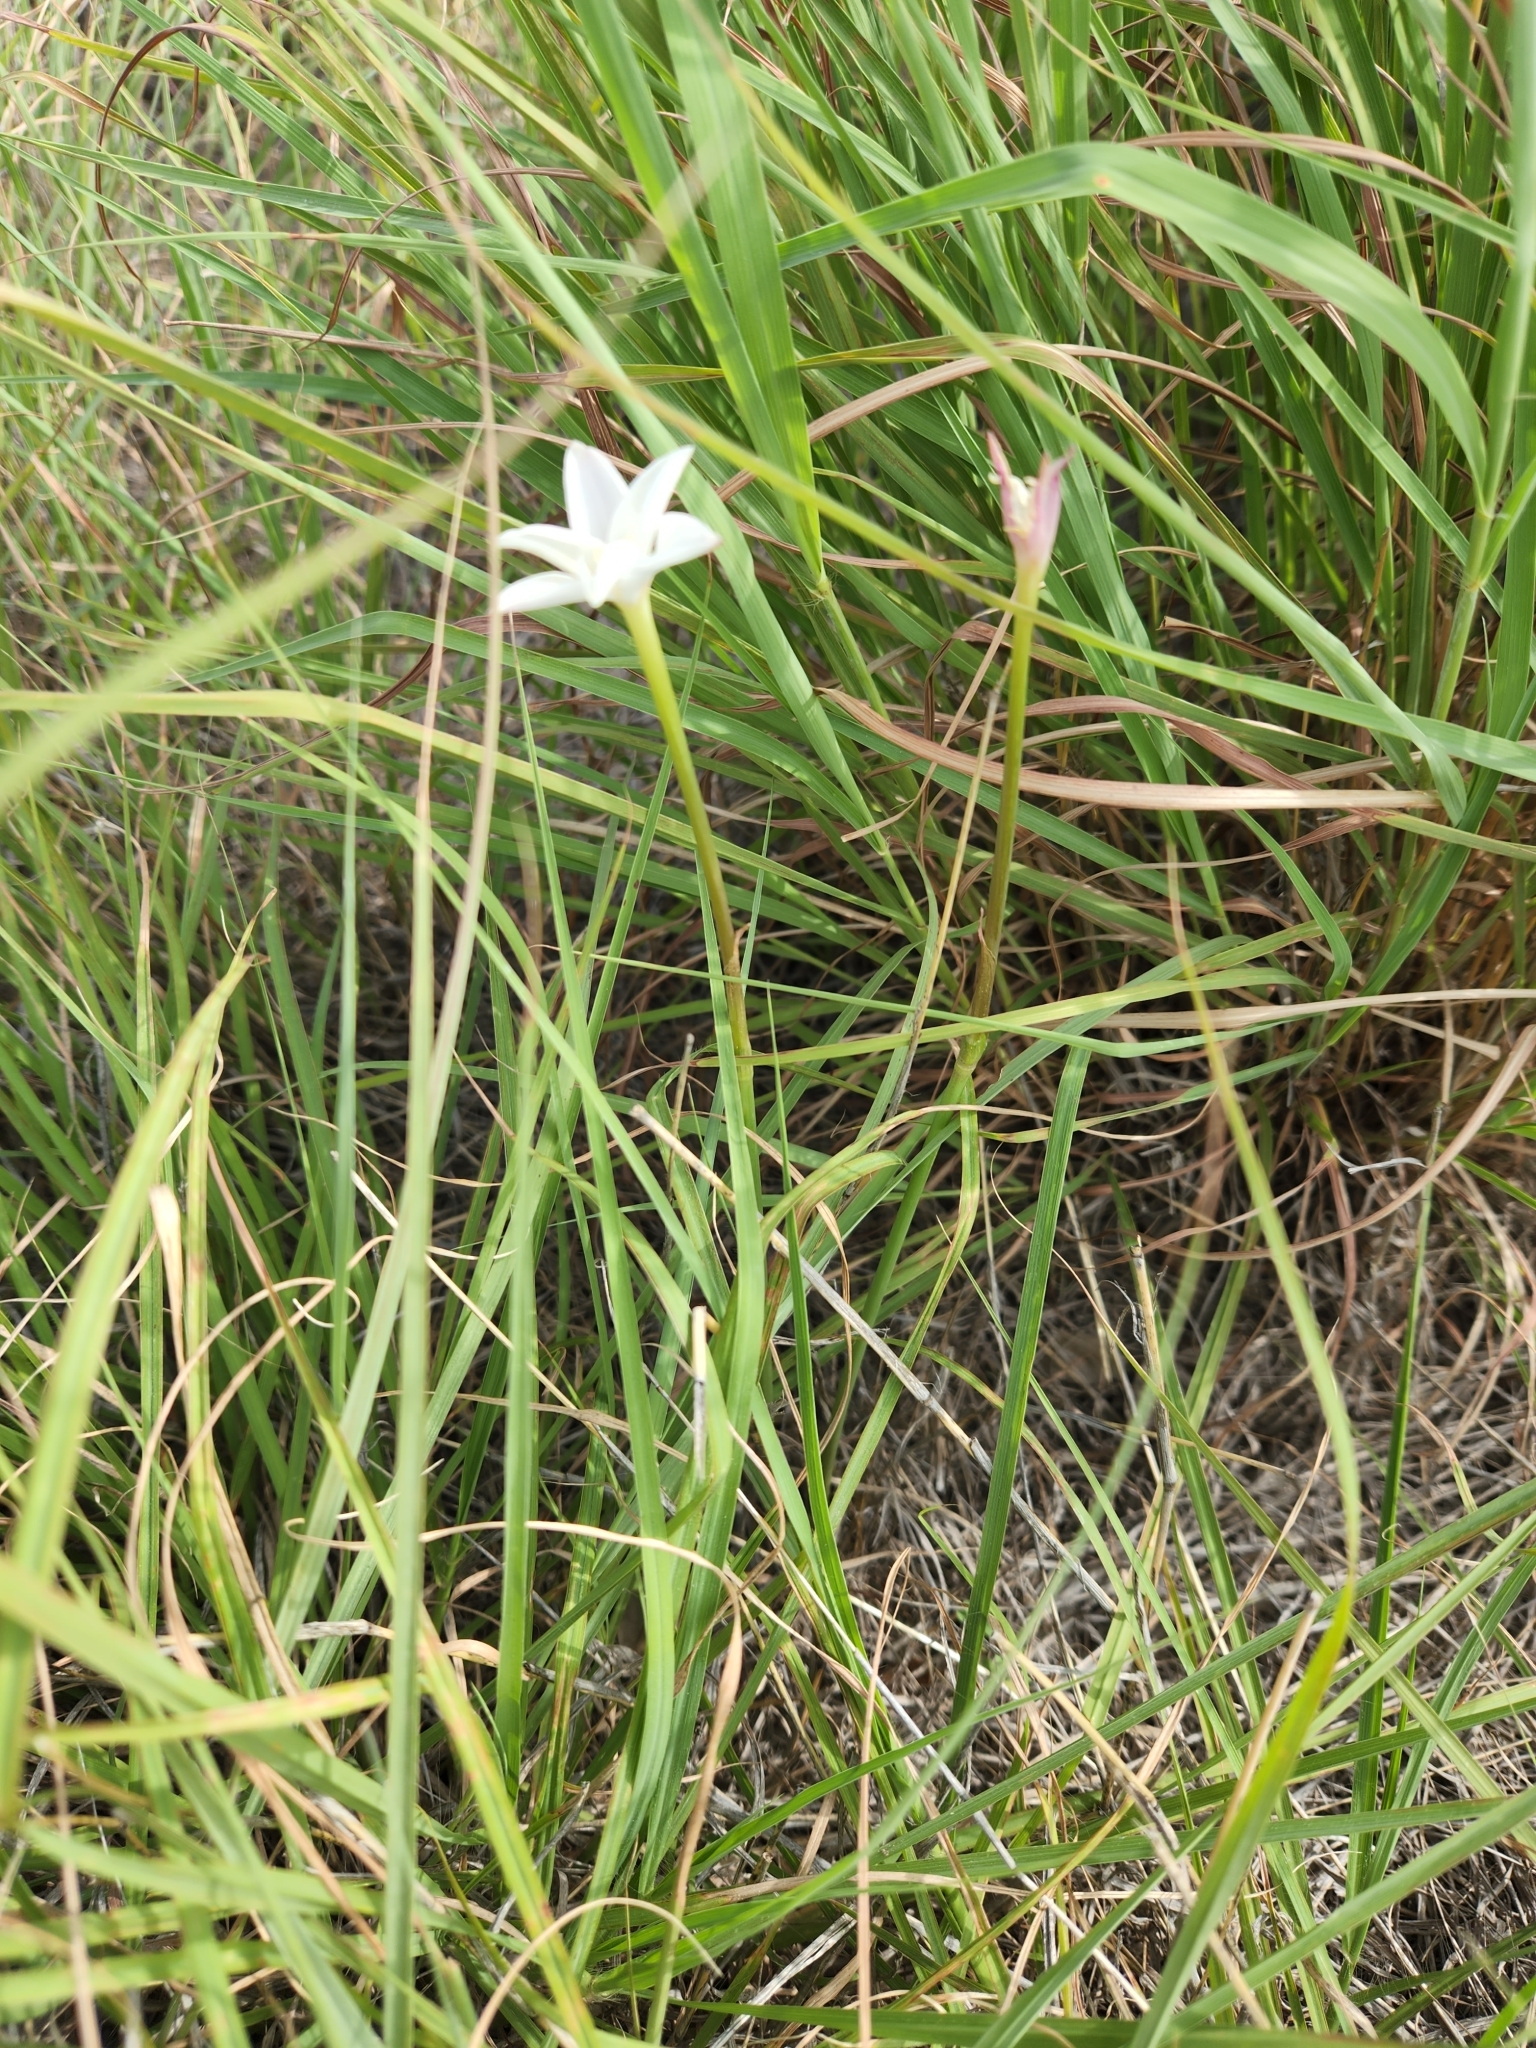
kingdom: Plantae
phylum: Tracheophyta
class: Liliopsida
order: Asparagales
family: Amaryllidaceae
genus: Zephyranthes
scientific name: Zephyranthes chlorosolen
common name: Evening rain-lily
